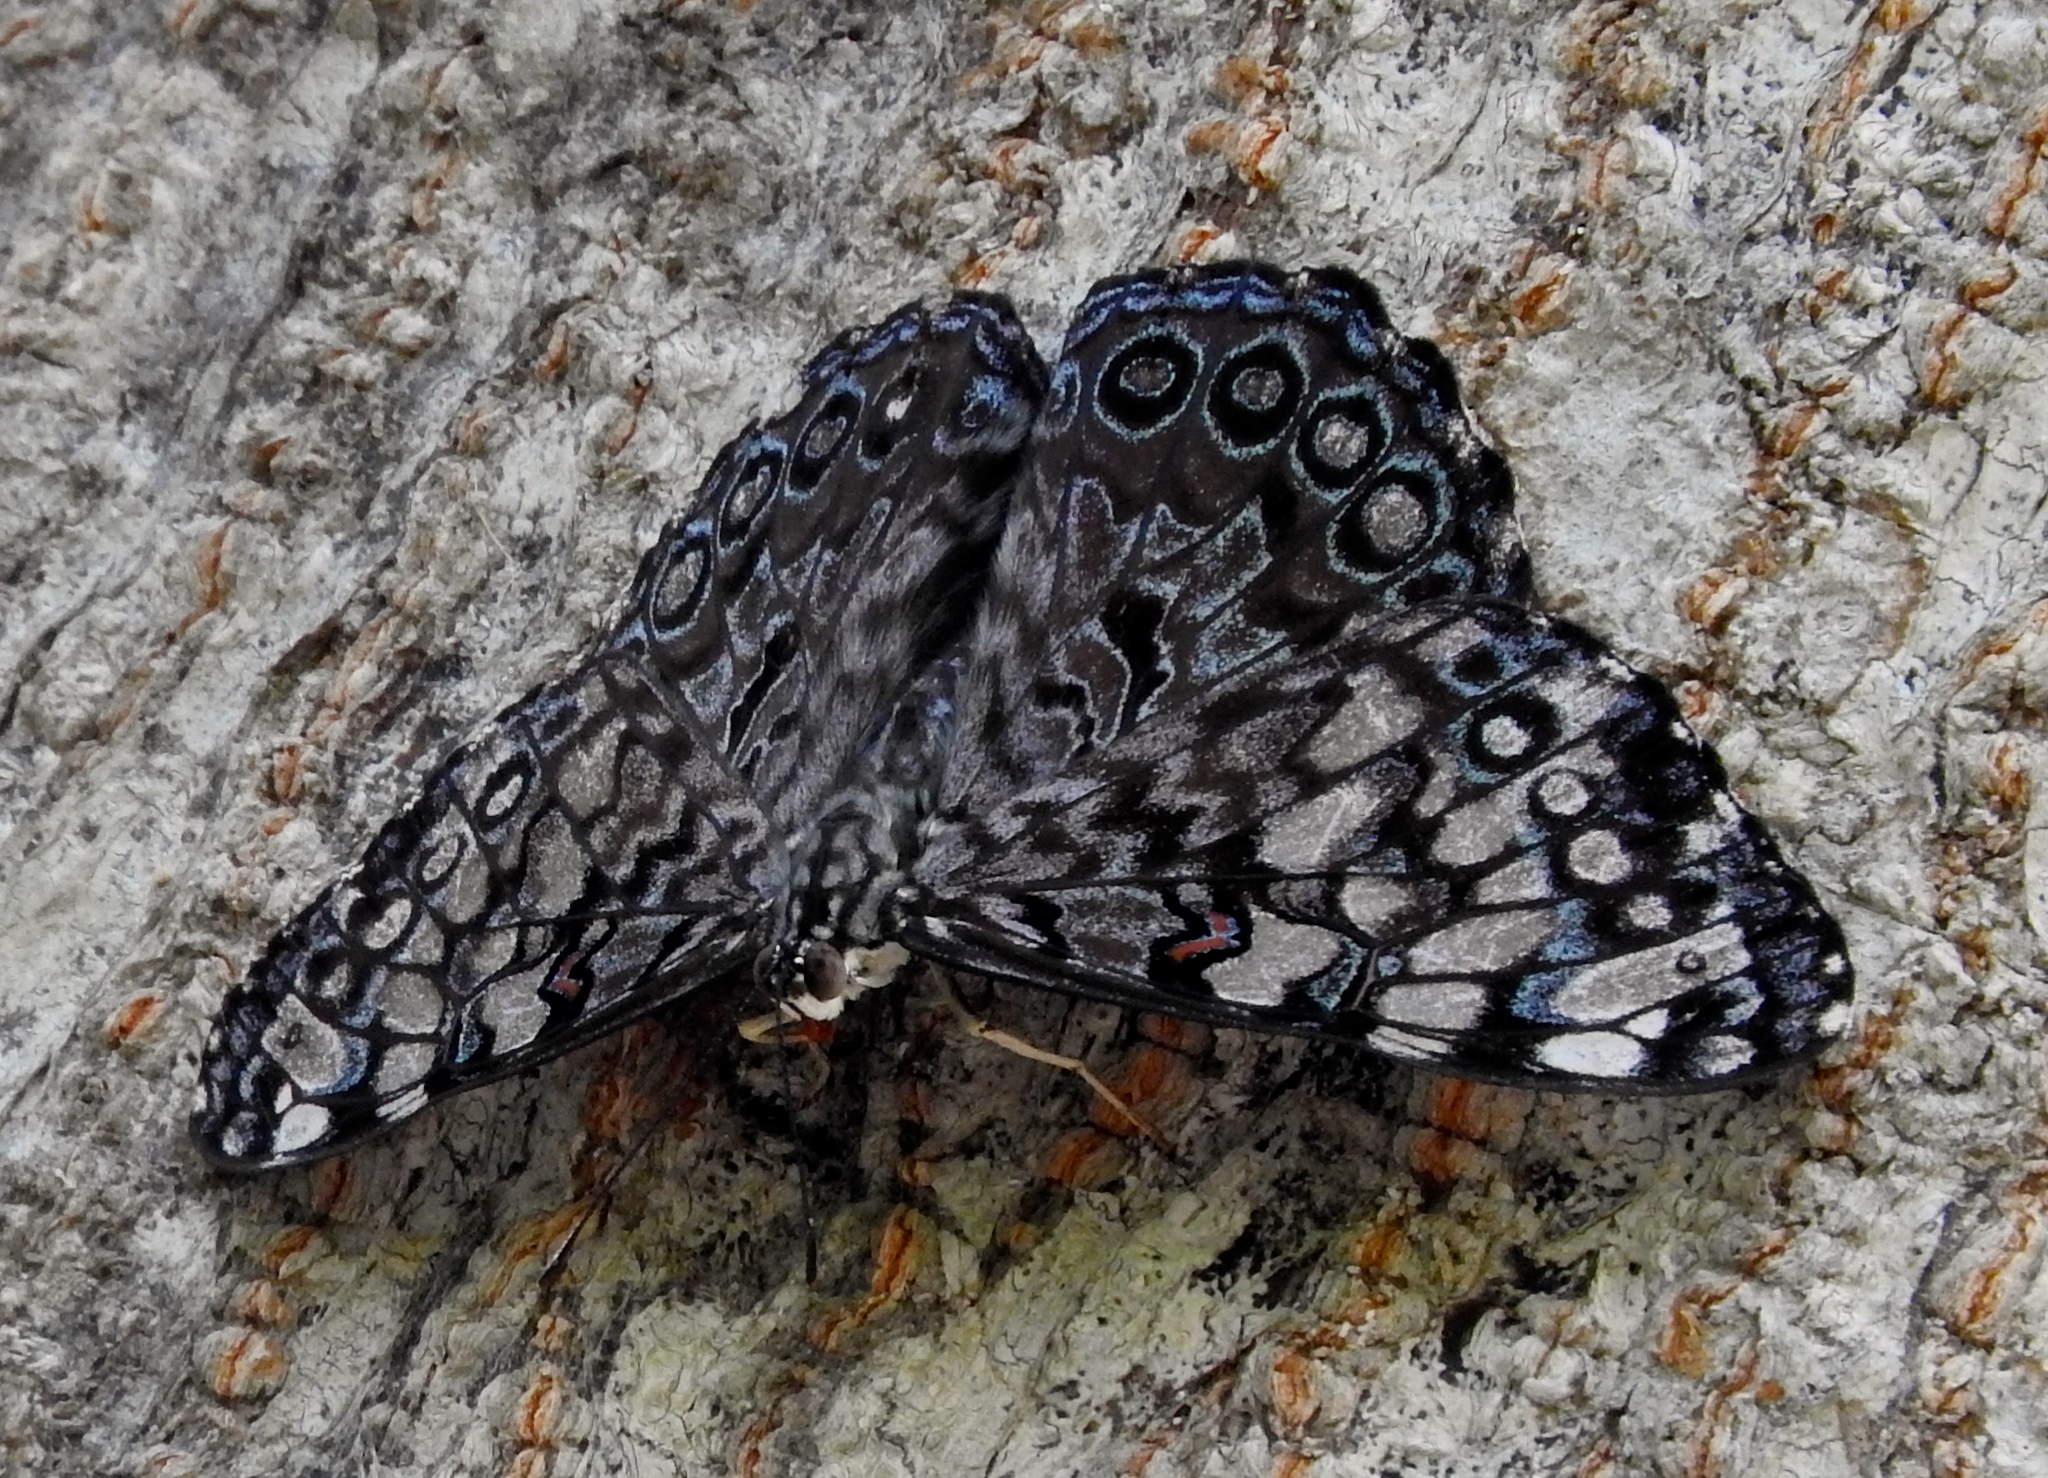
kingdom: Animalia
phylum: Arthropoda
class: Insecta
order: Lepidoptera
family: Nymphalidae
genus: Hamadryas
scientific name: Hamadryas guatemalena
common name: Guatemalan cracker
